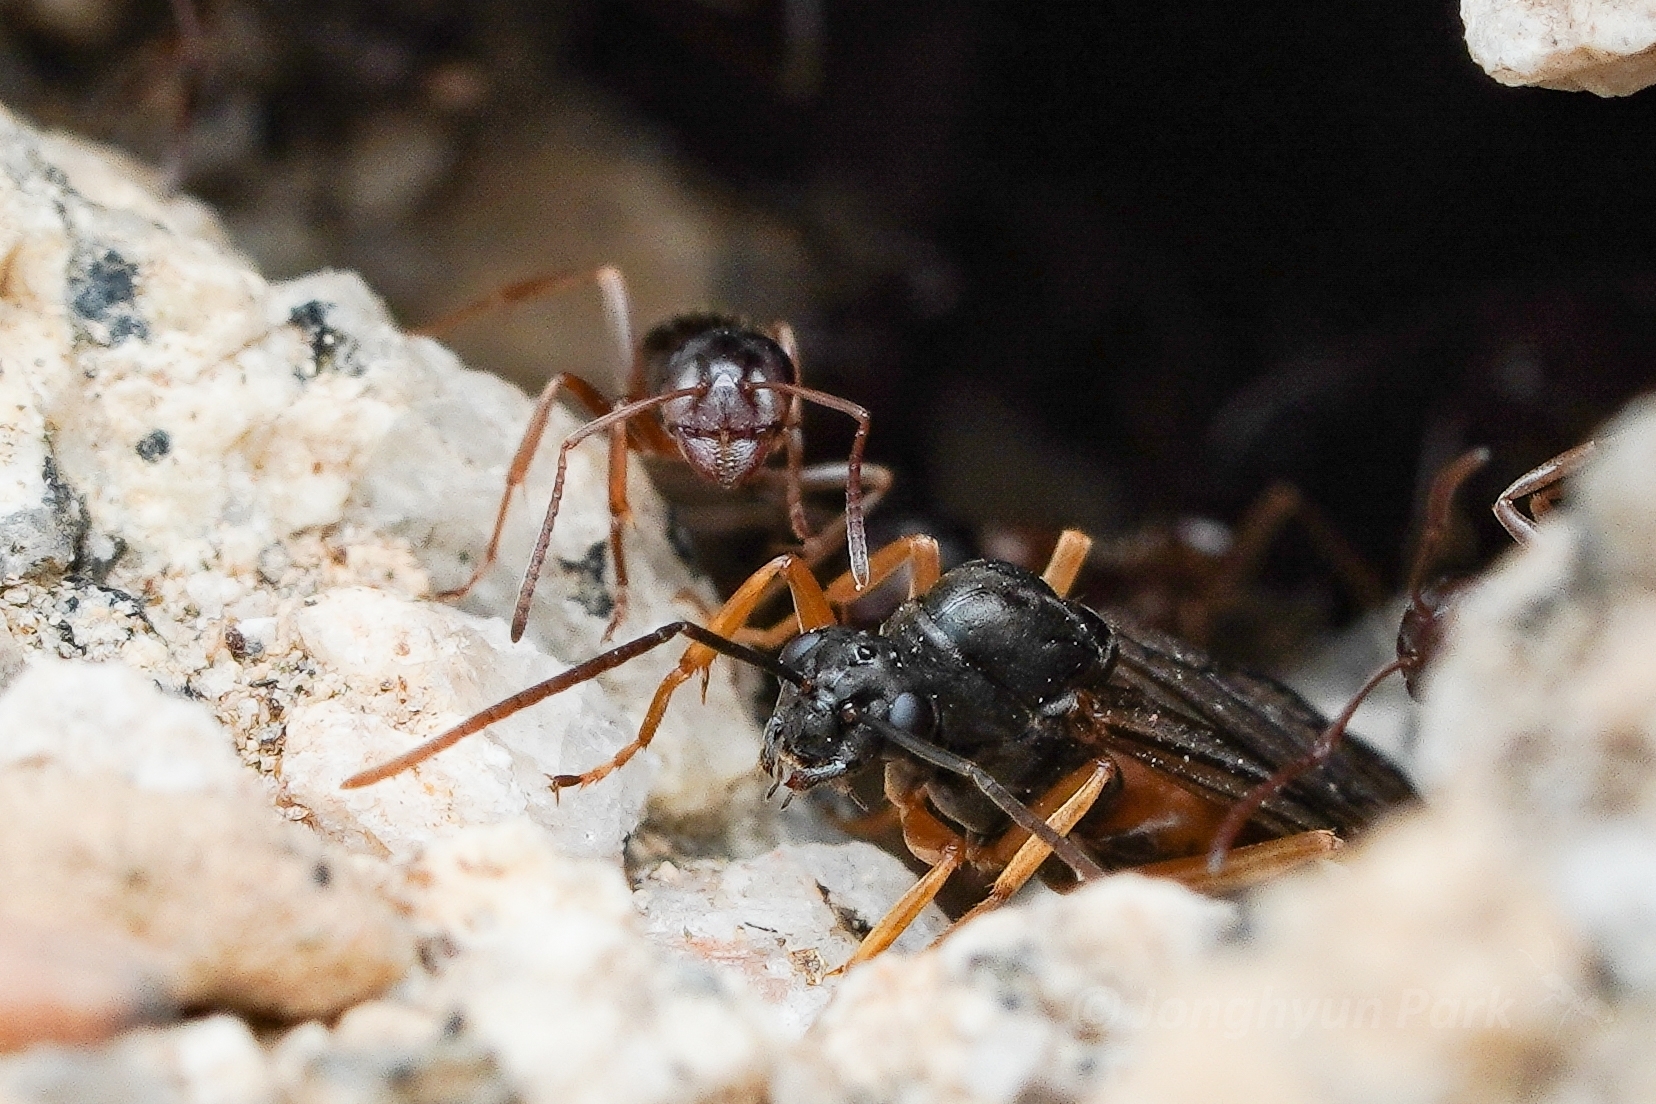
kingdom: Animalia
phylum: Arthropoda
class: Insecta
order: Hymenoptera
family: Formicidae
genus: Formica
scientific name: Formica subpolita
